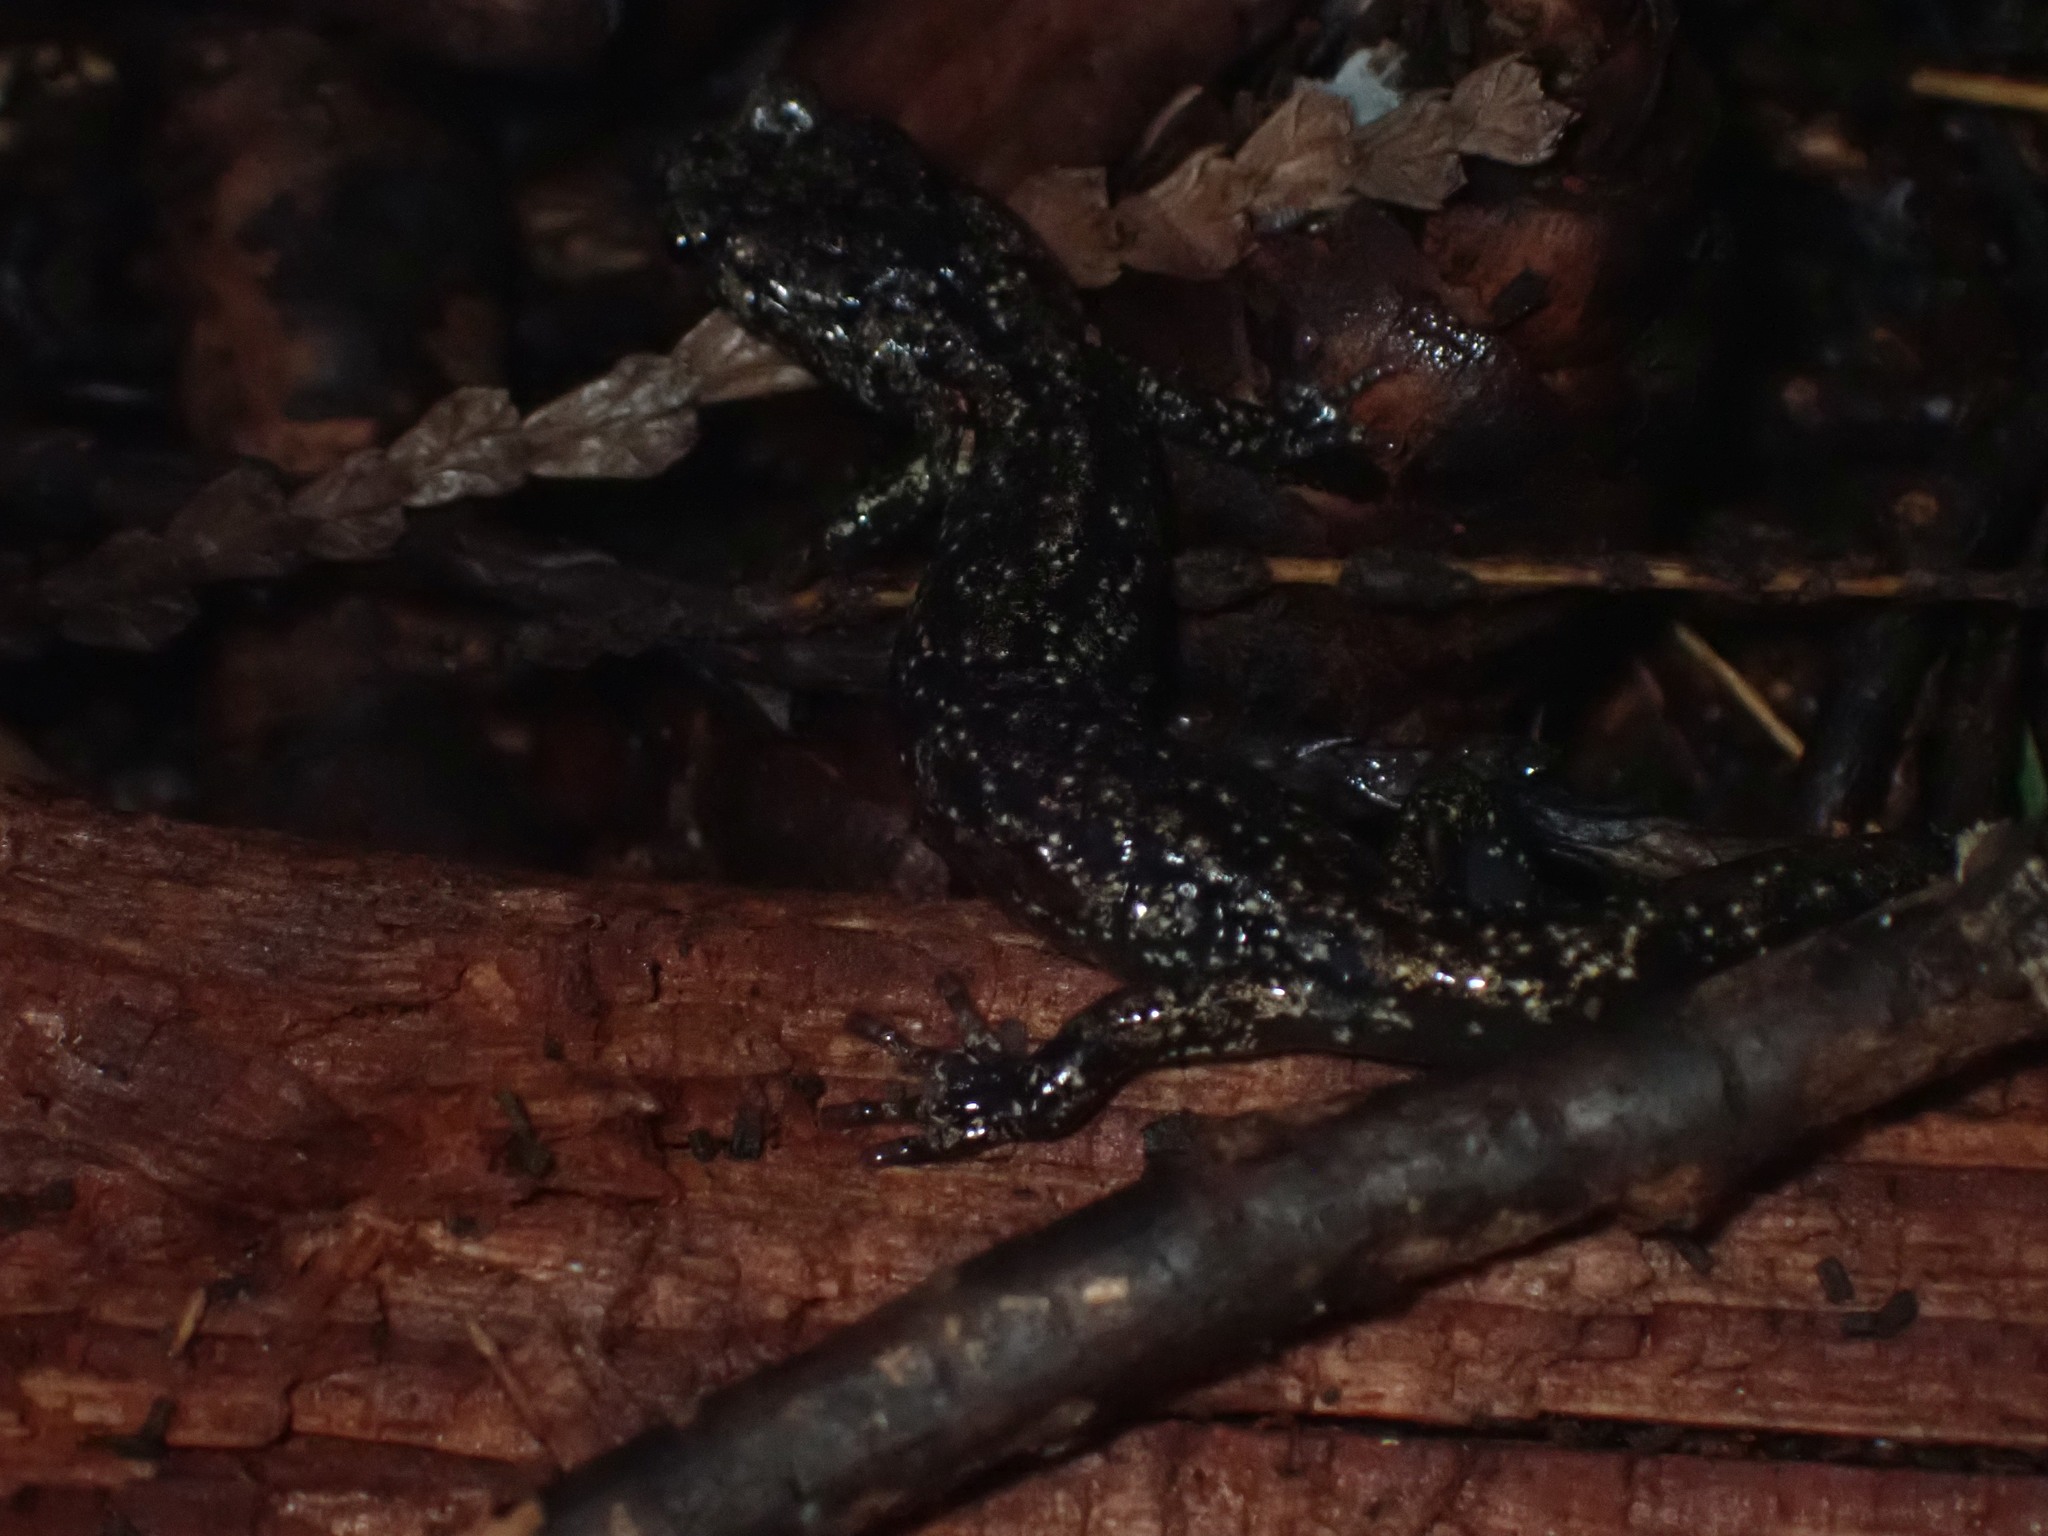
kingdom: Animalia
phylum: Chordata
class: Amphibia
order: Caudata
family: Plethodontidae
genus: Aneides
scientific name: Aneides vagrans
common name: Wandering salamander
